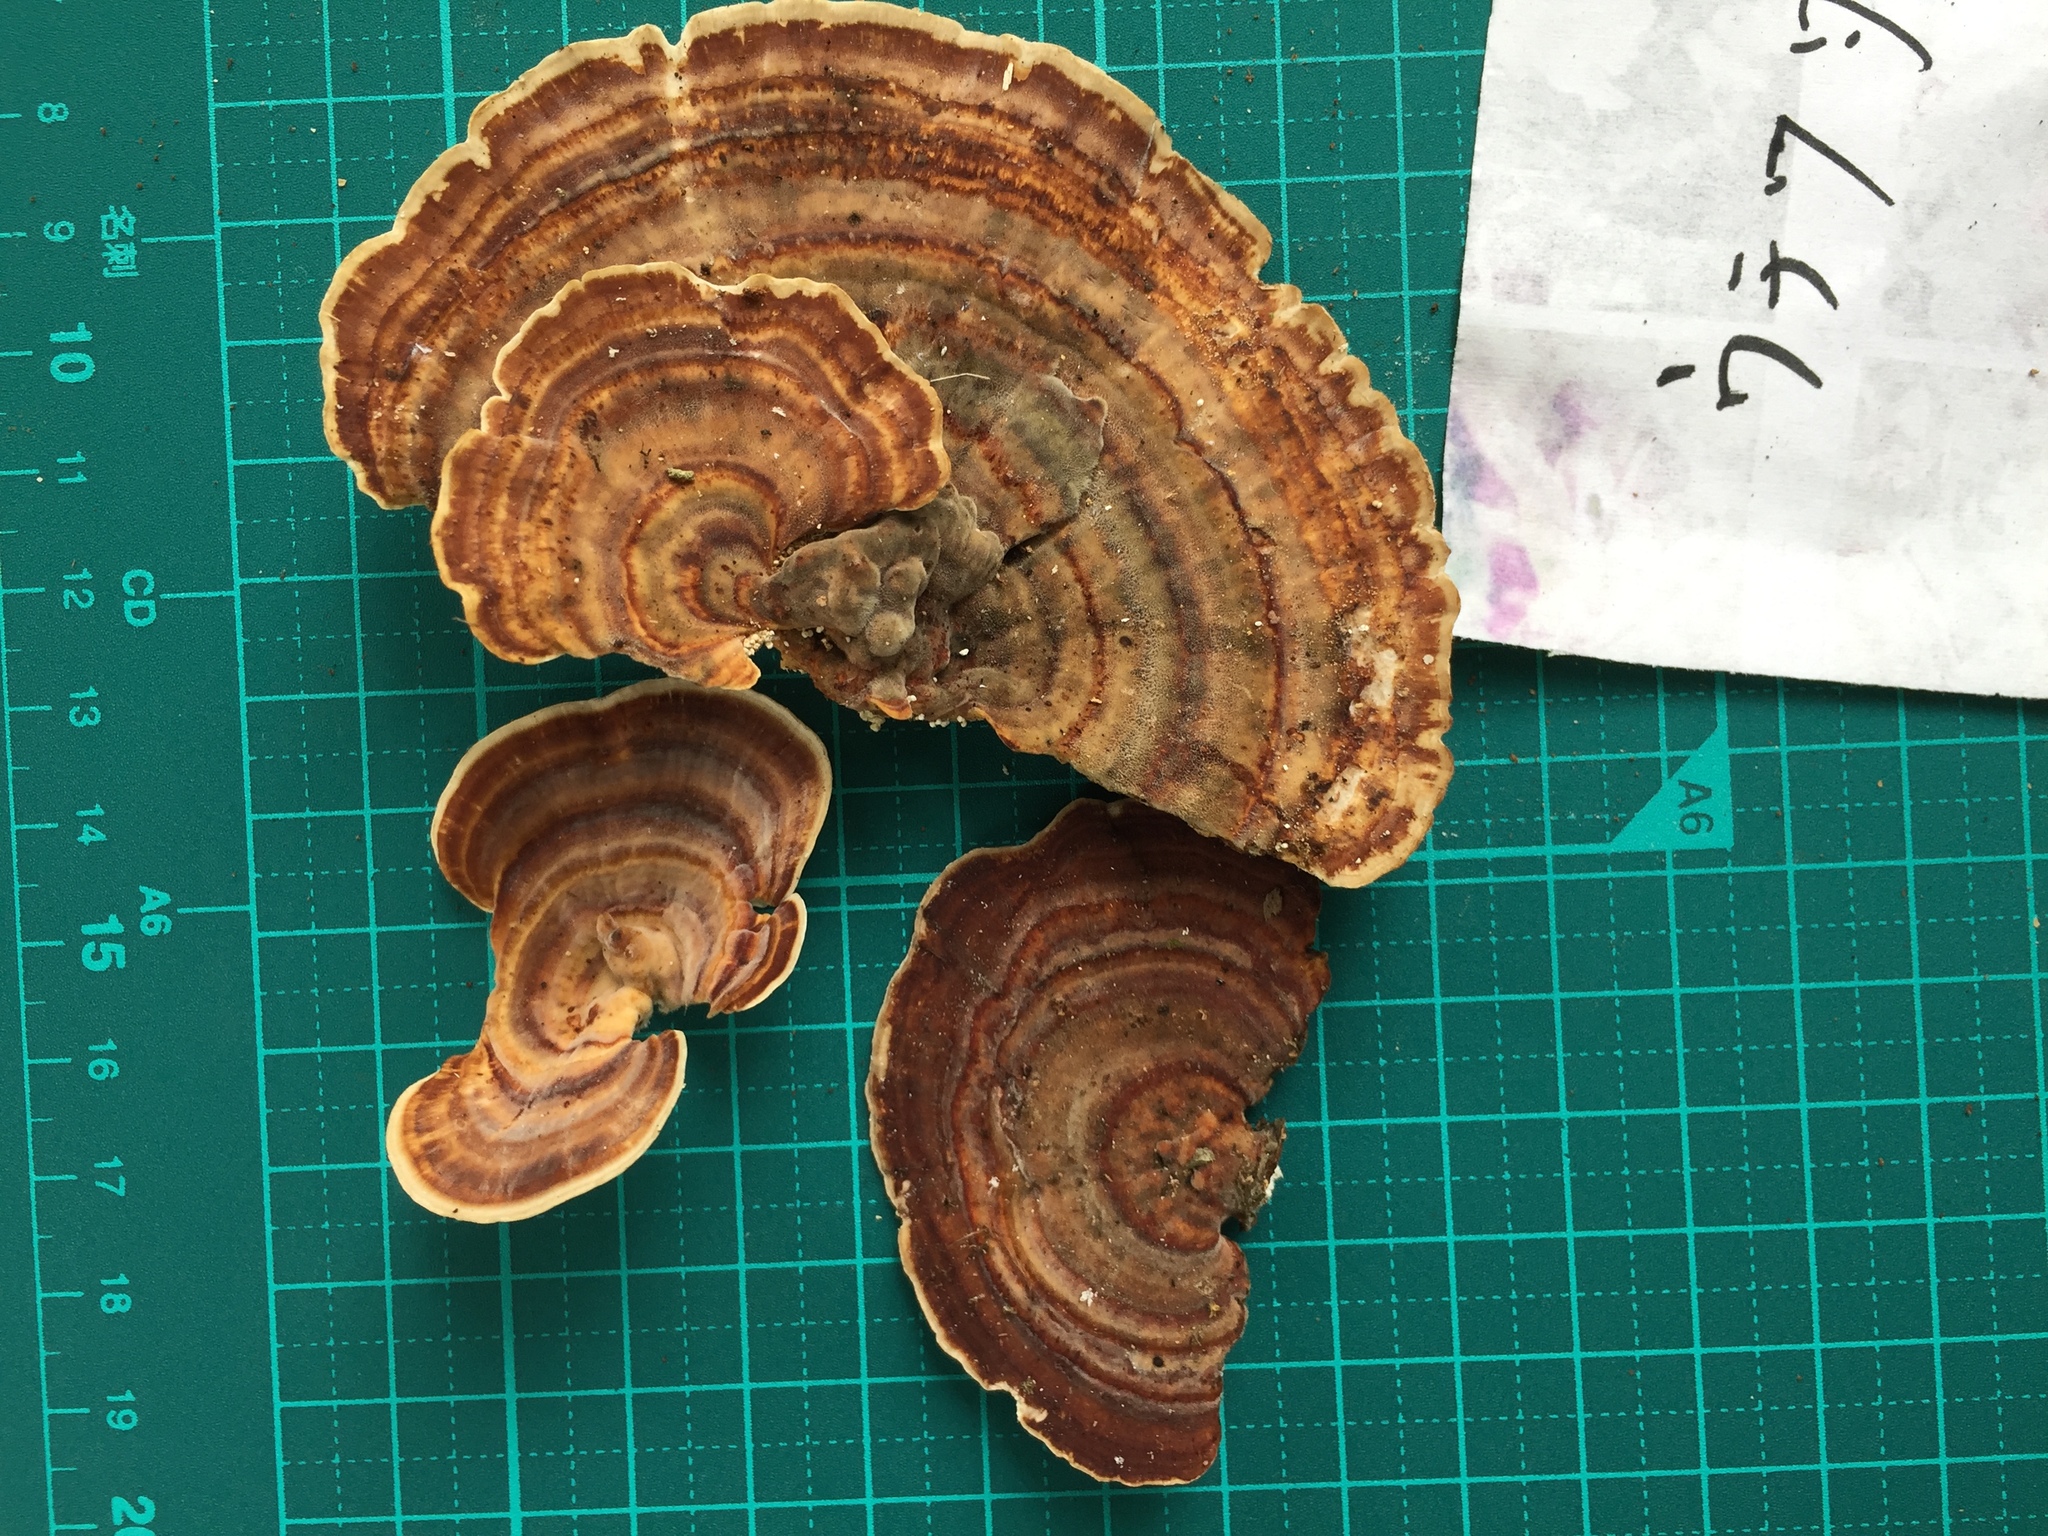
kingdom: Fungi
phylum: Basidiomycota
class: Agaricomycetes
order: Polyporales
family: Polyporaceae
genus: Microporus
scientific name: Microporus affinis
